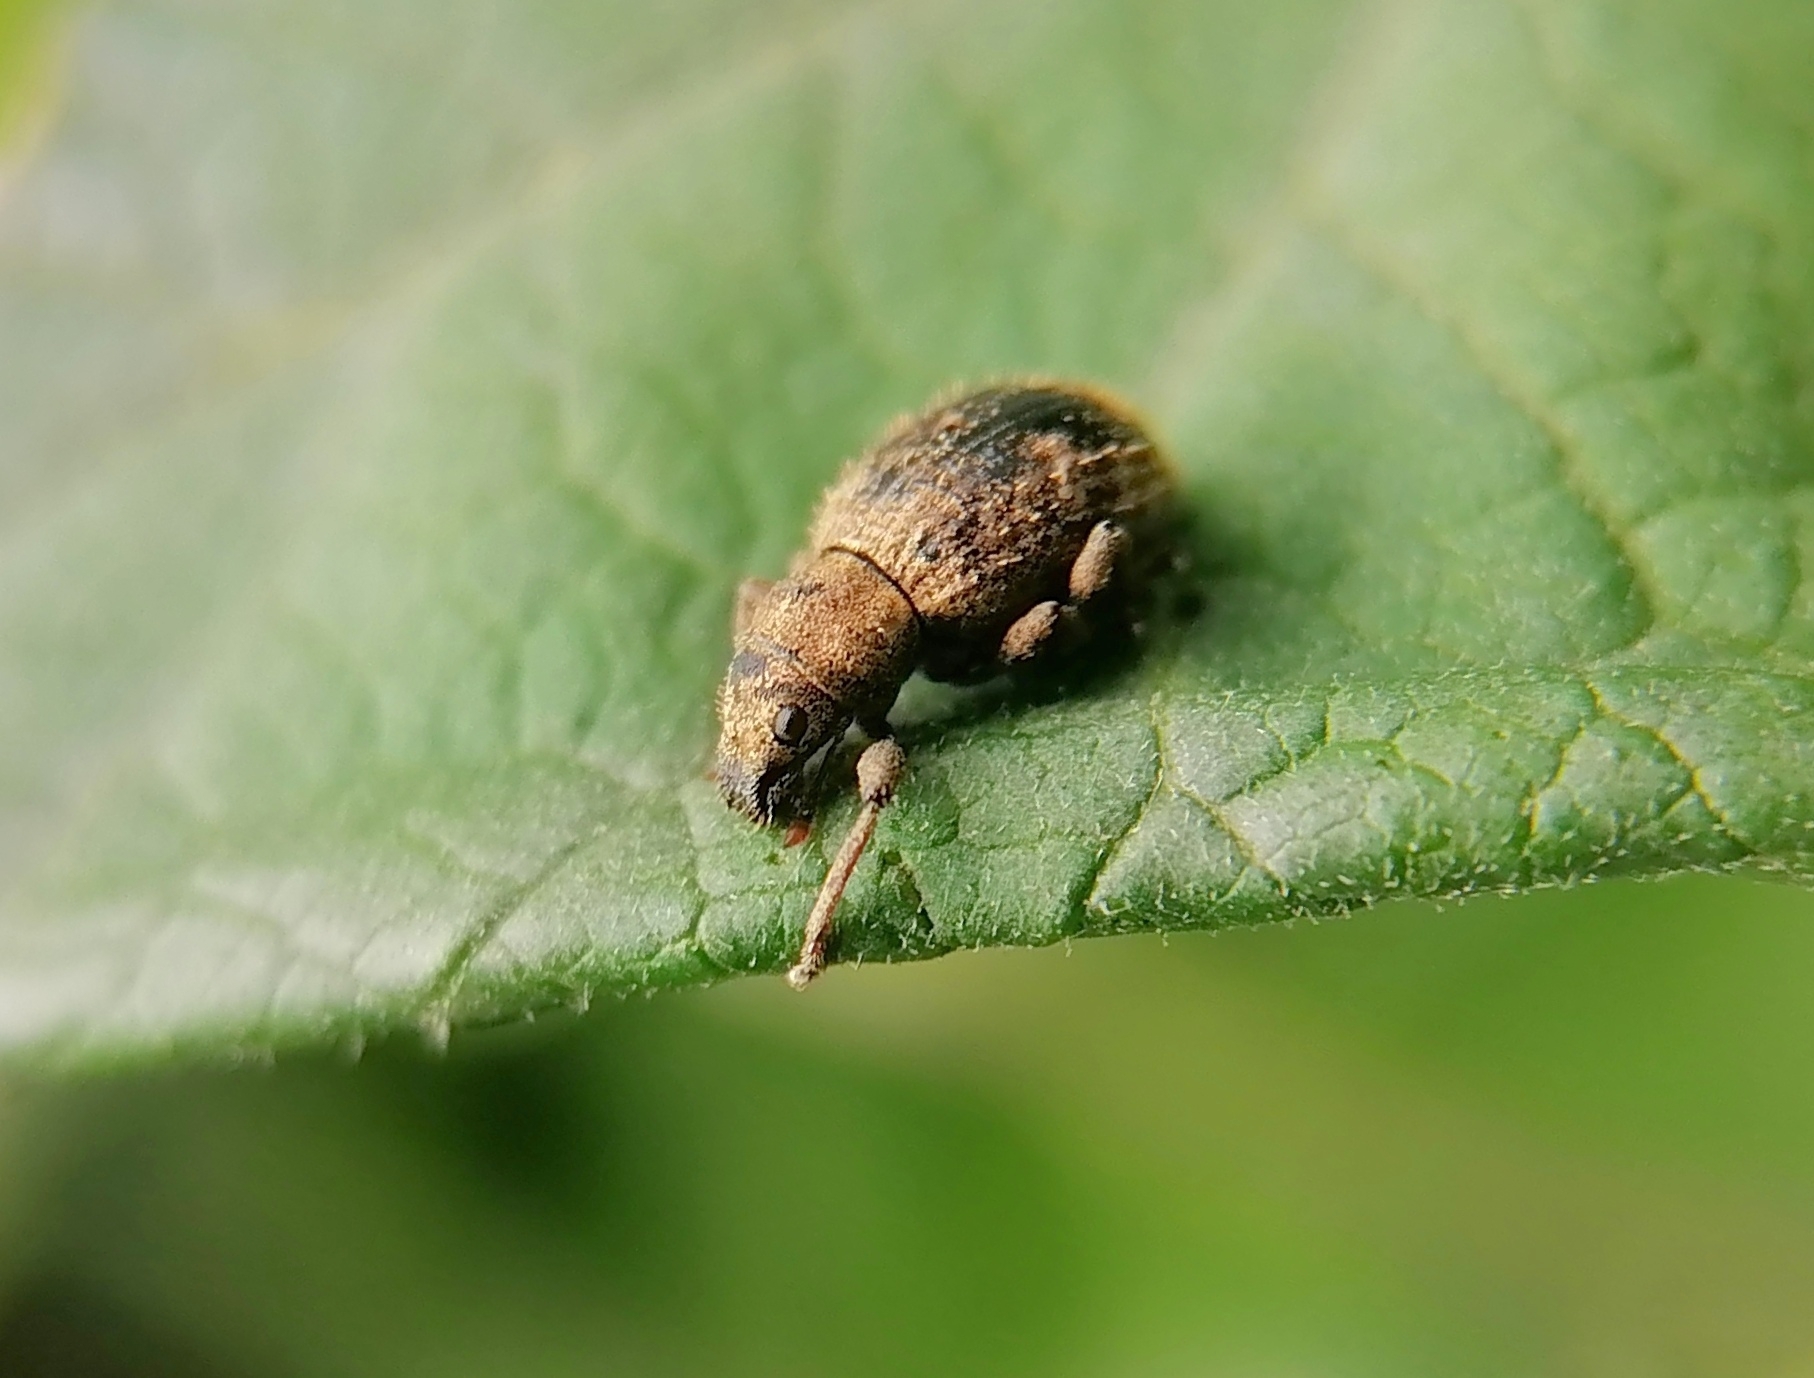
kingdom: Animalia
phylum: Arthropoda
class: Insecta
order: Coleoptera
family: Curculionidae
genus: Sciaphilus
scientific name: Sciaphilus asperatus
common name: Weevil
